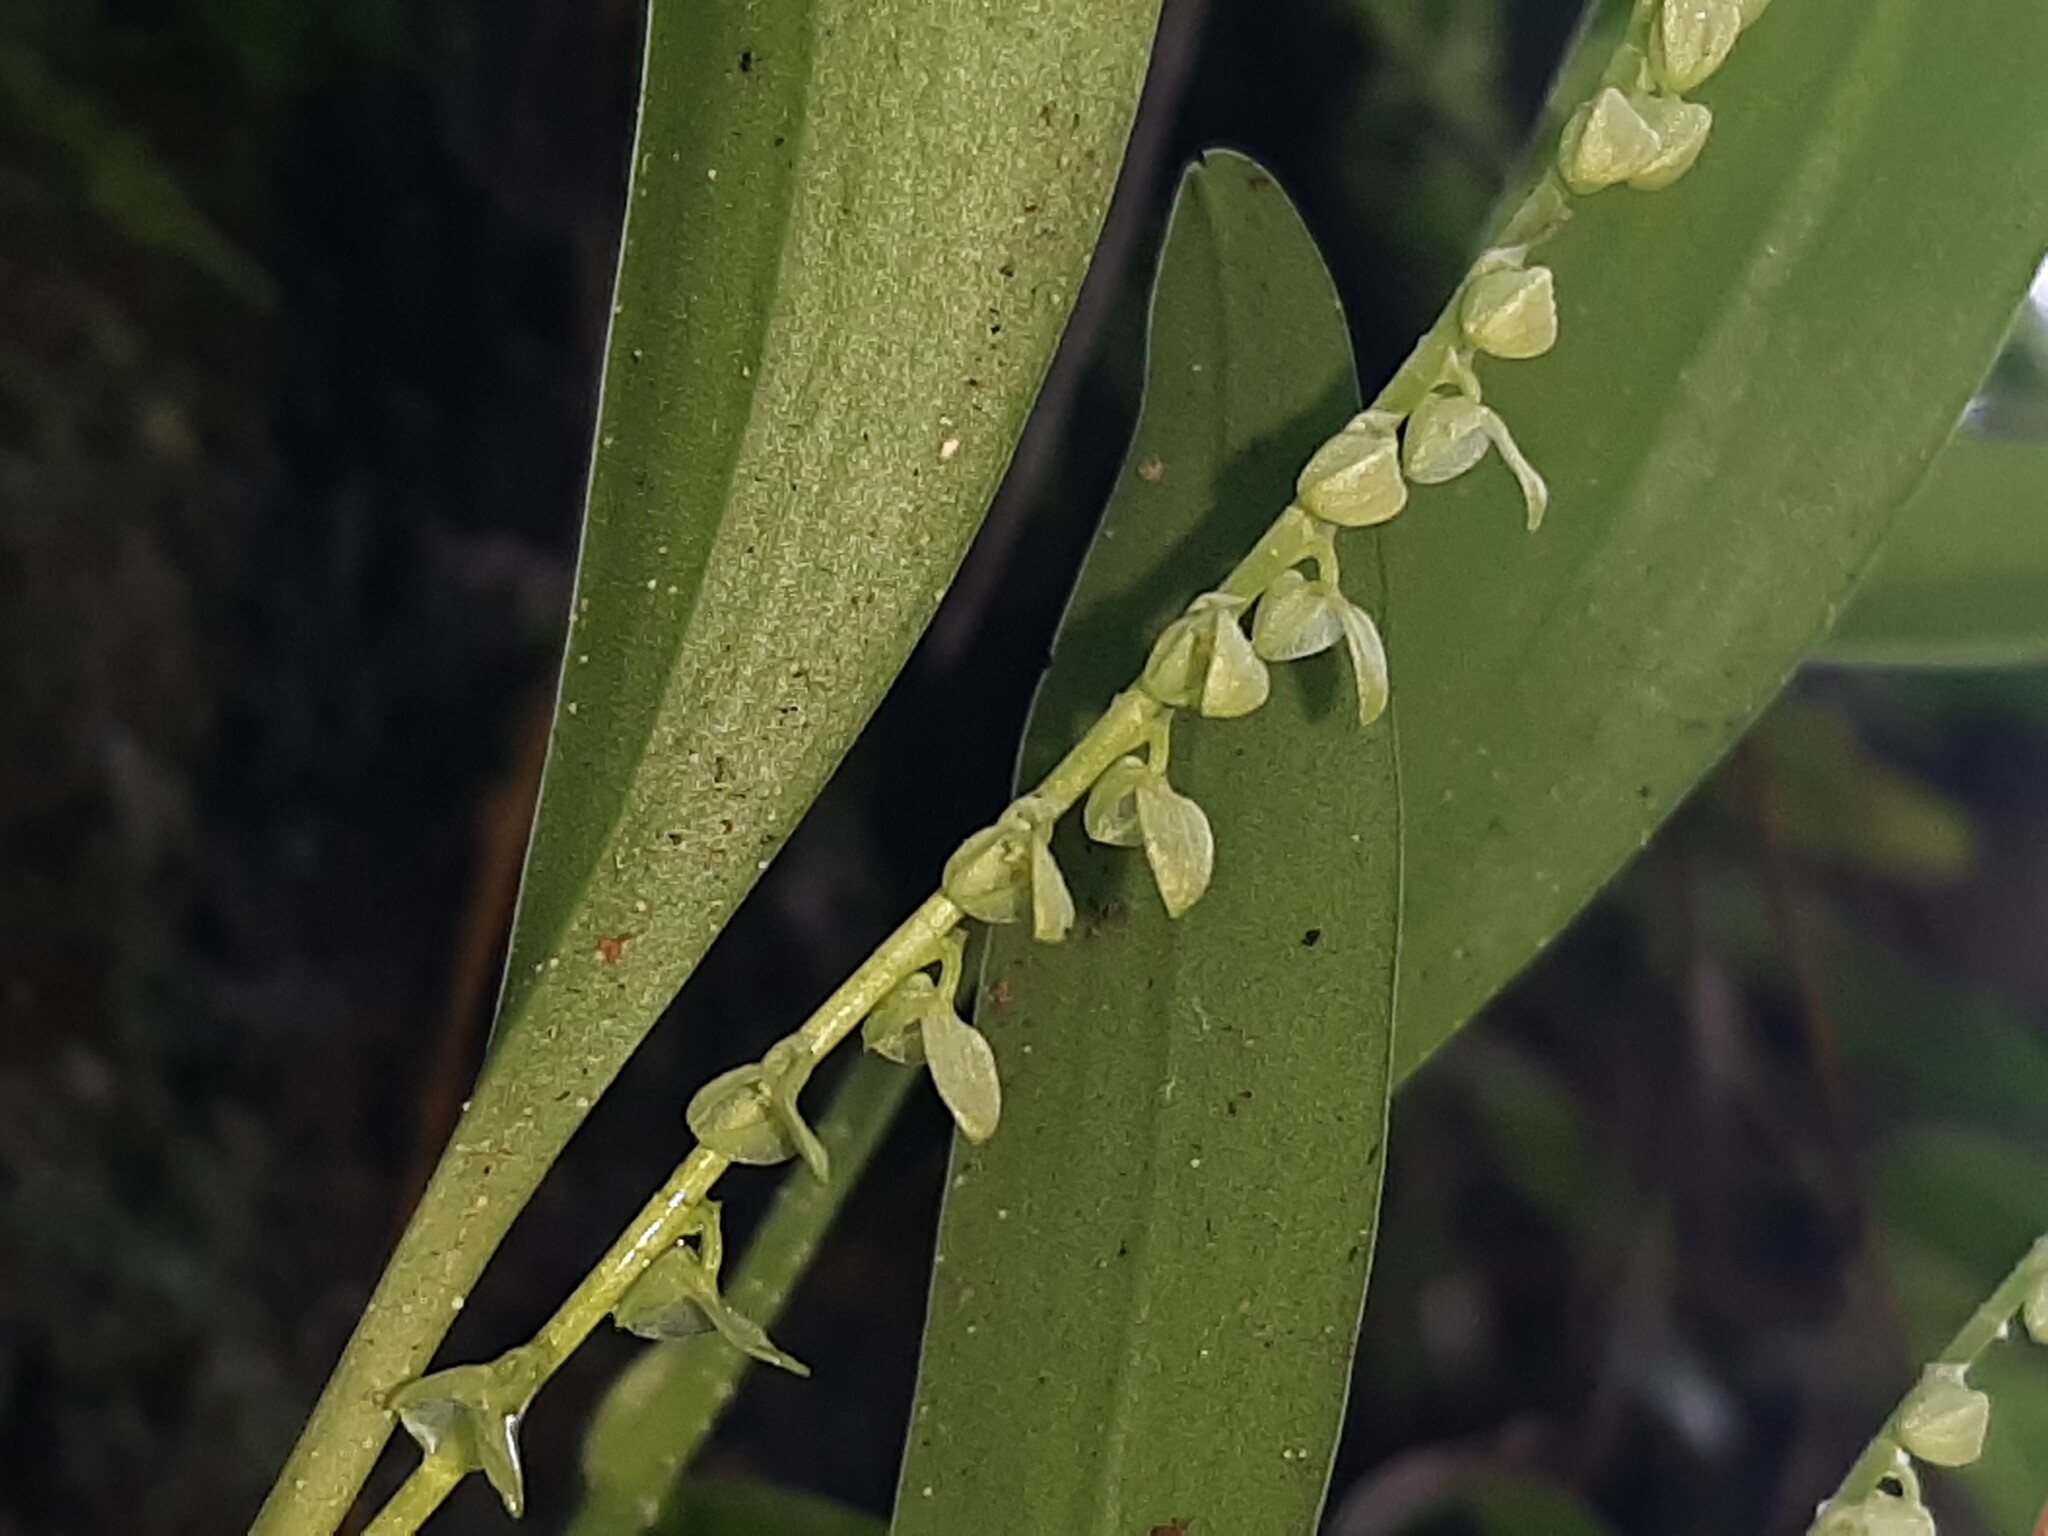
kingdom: Plantae
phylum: Tracheophyta
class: Liliopsida
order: Asparagales
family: Orchidaceae
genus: Stelis
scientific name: Stelis pardipes
